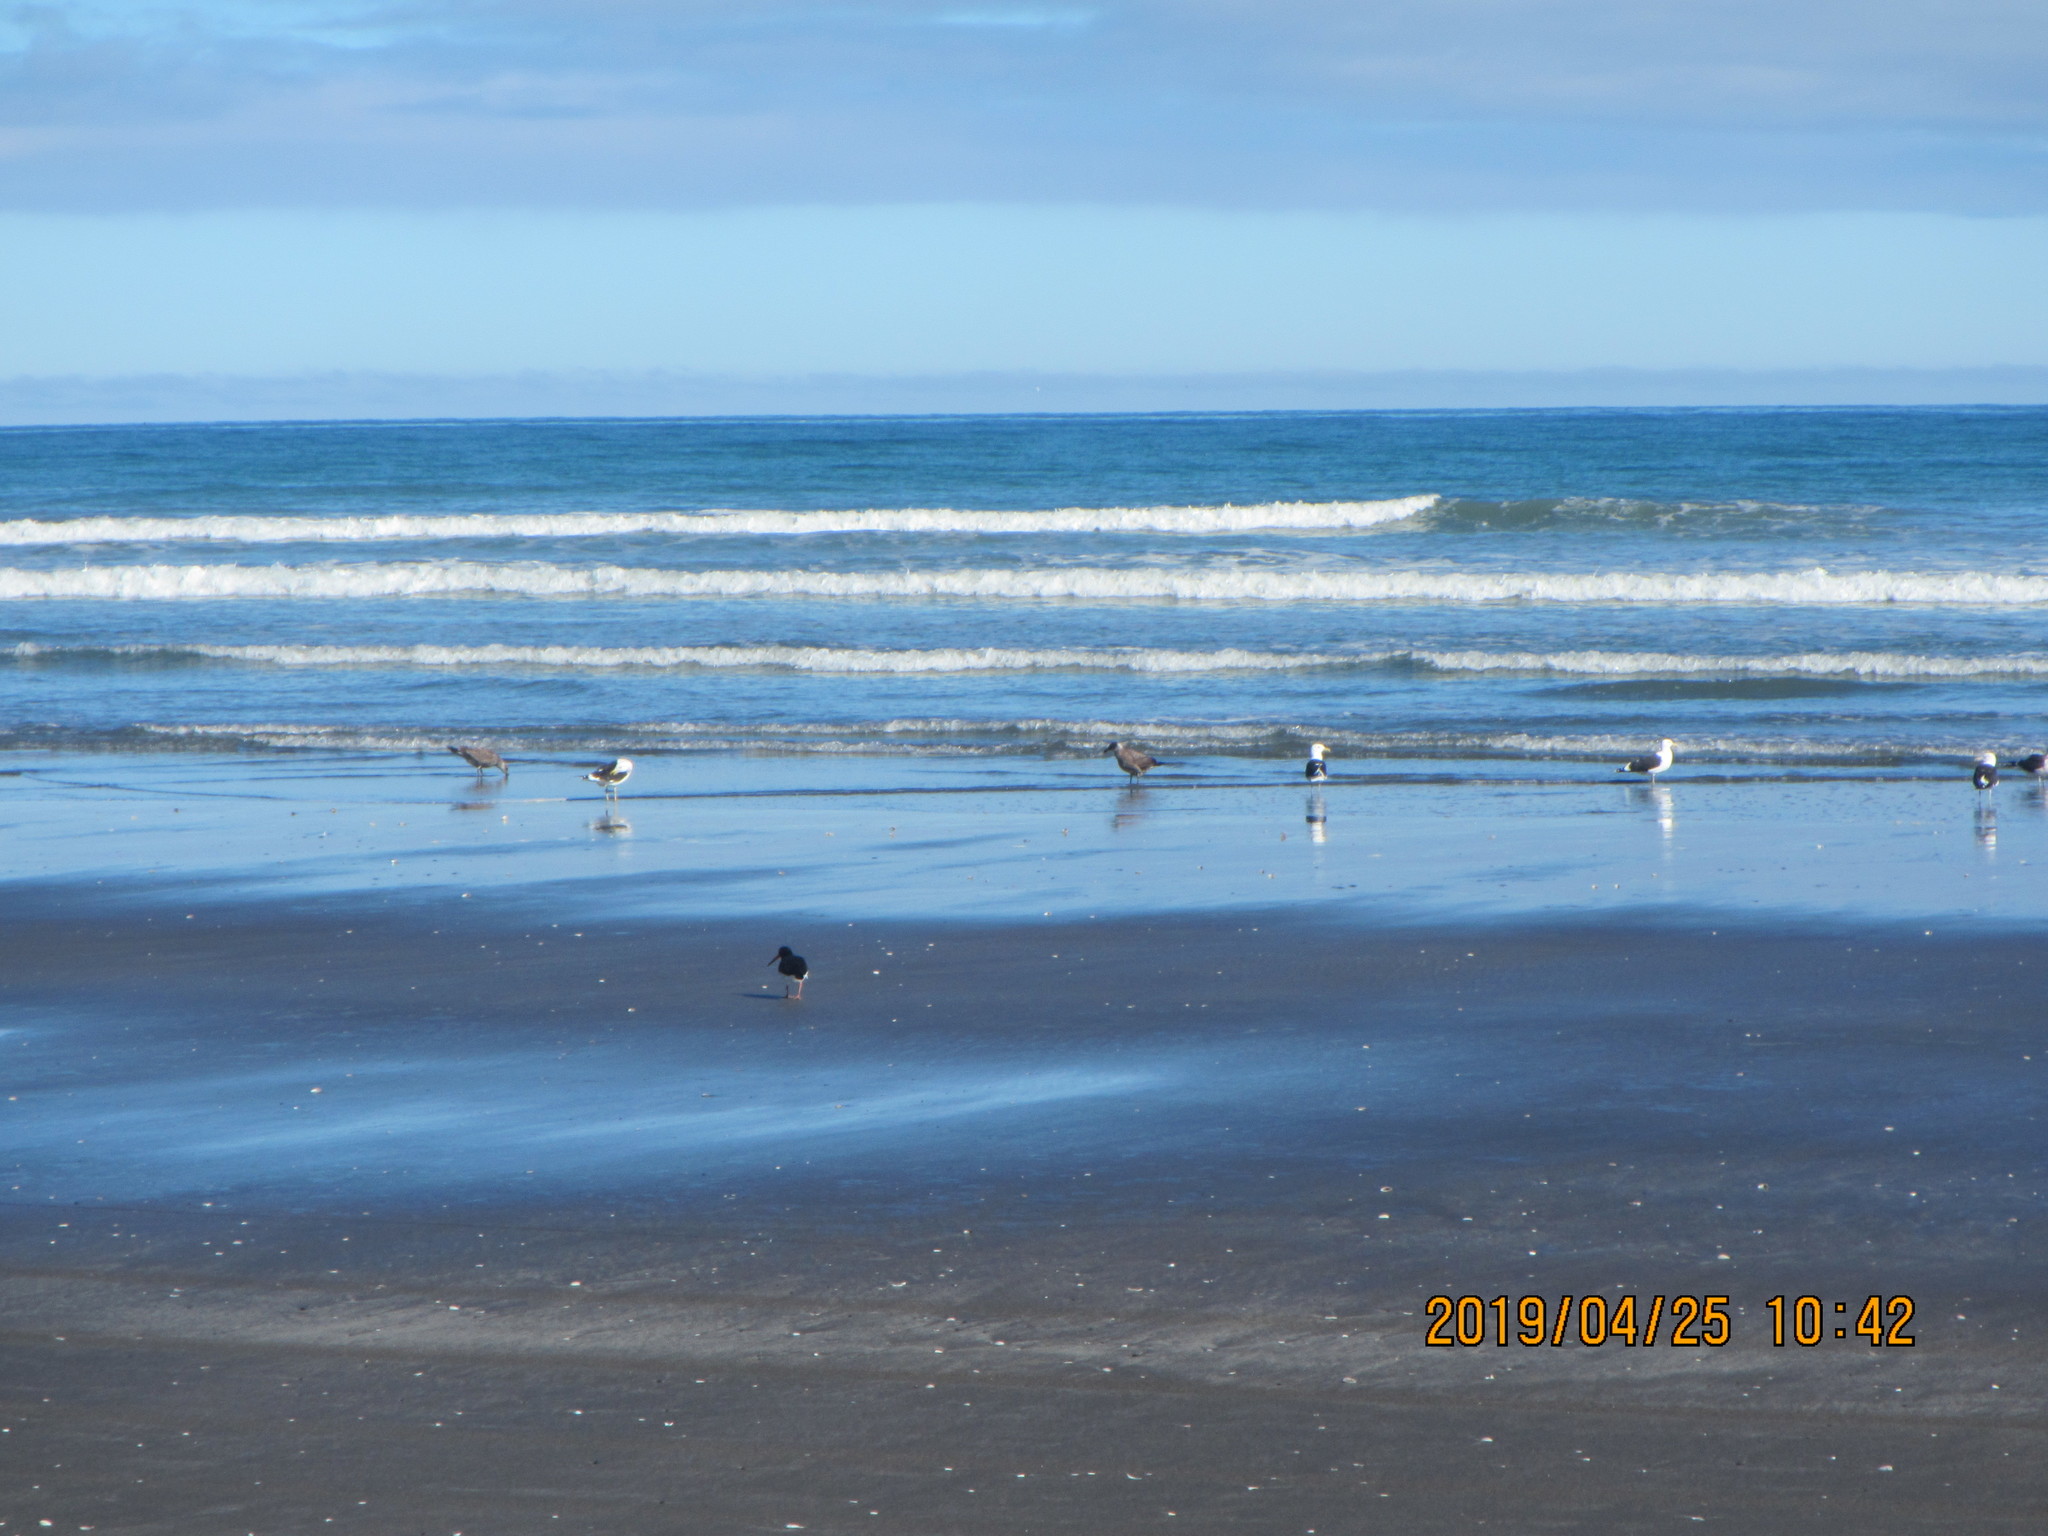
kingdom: Animalia
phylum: Chordata
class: Aves
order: Charadriiformes
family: Laridae
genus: Larus
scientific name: Larus dominicanus
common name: Kelp gull
